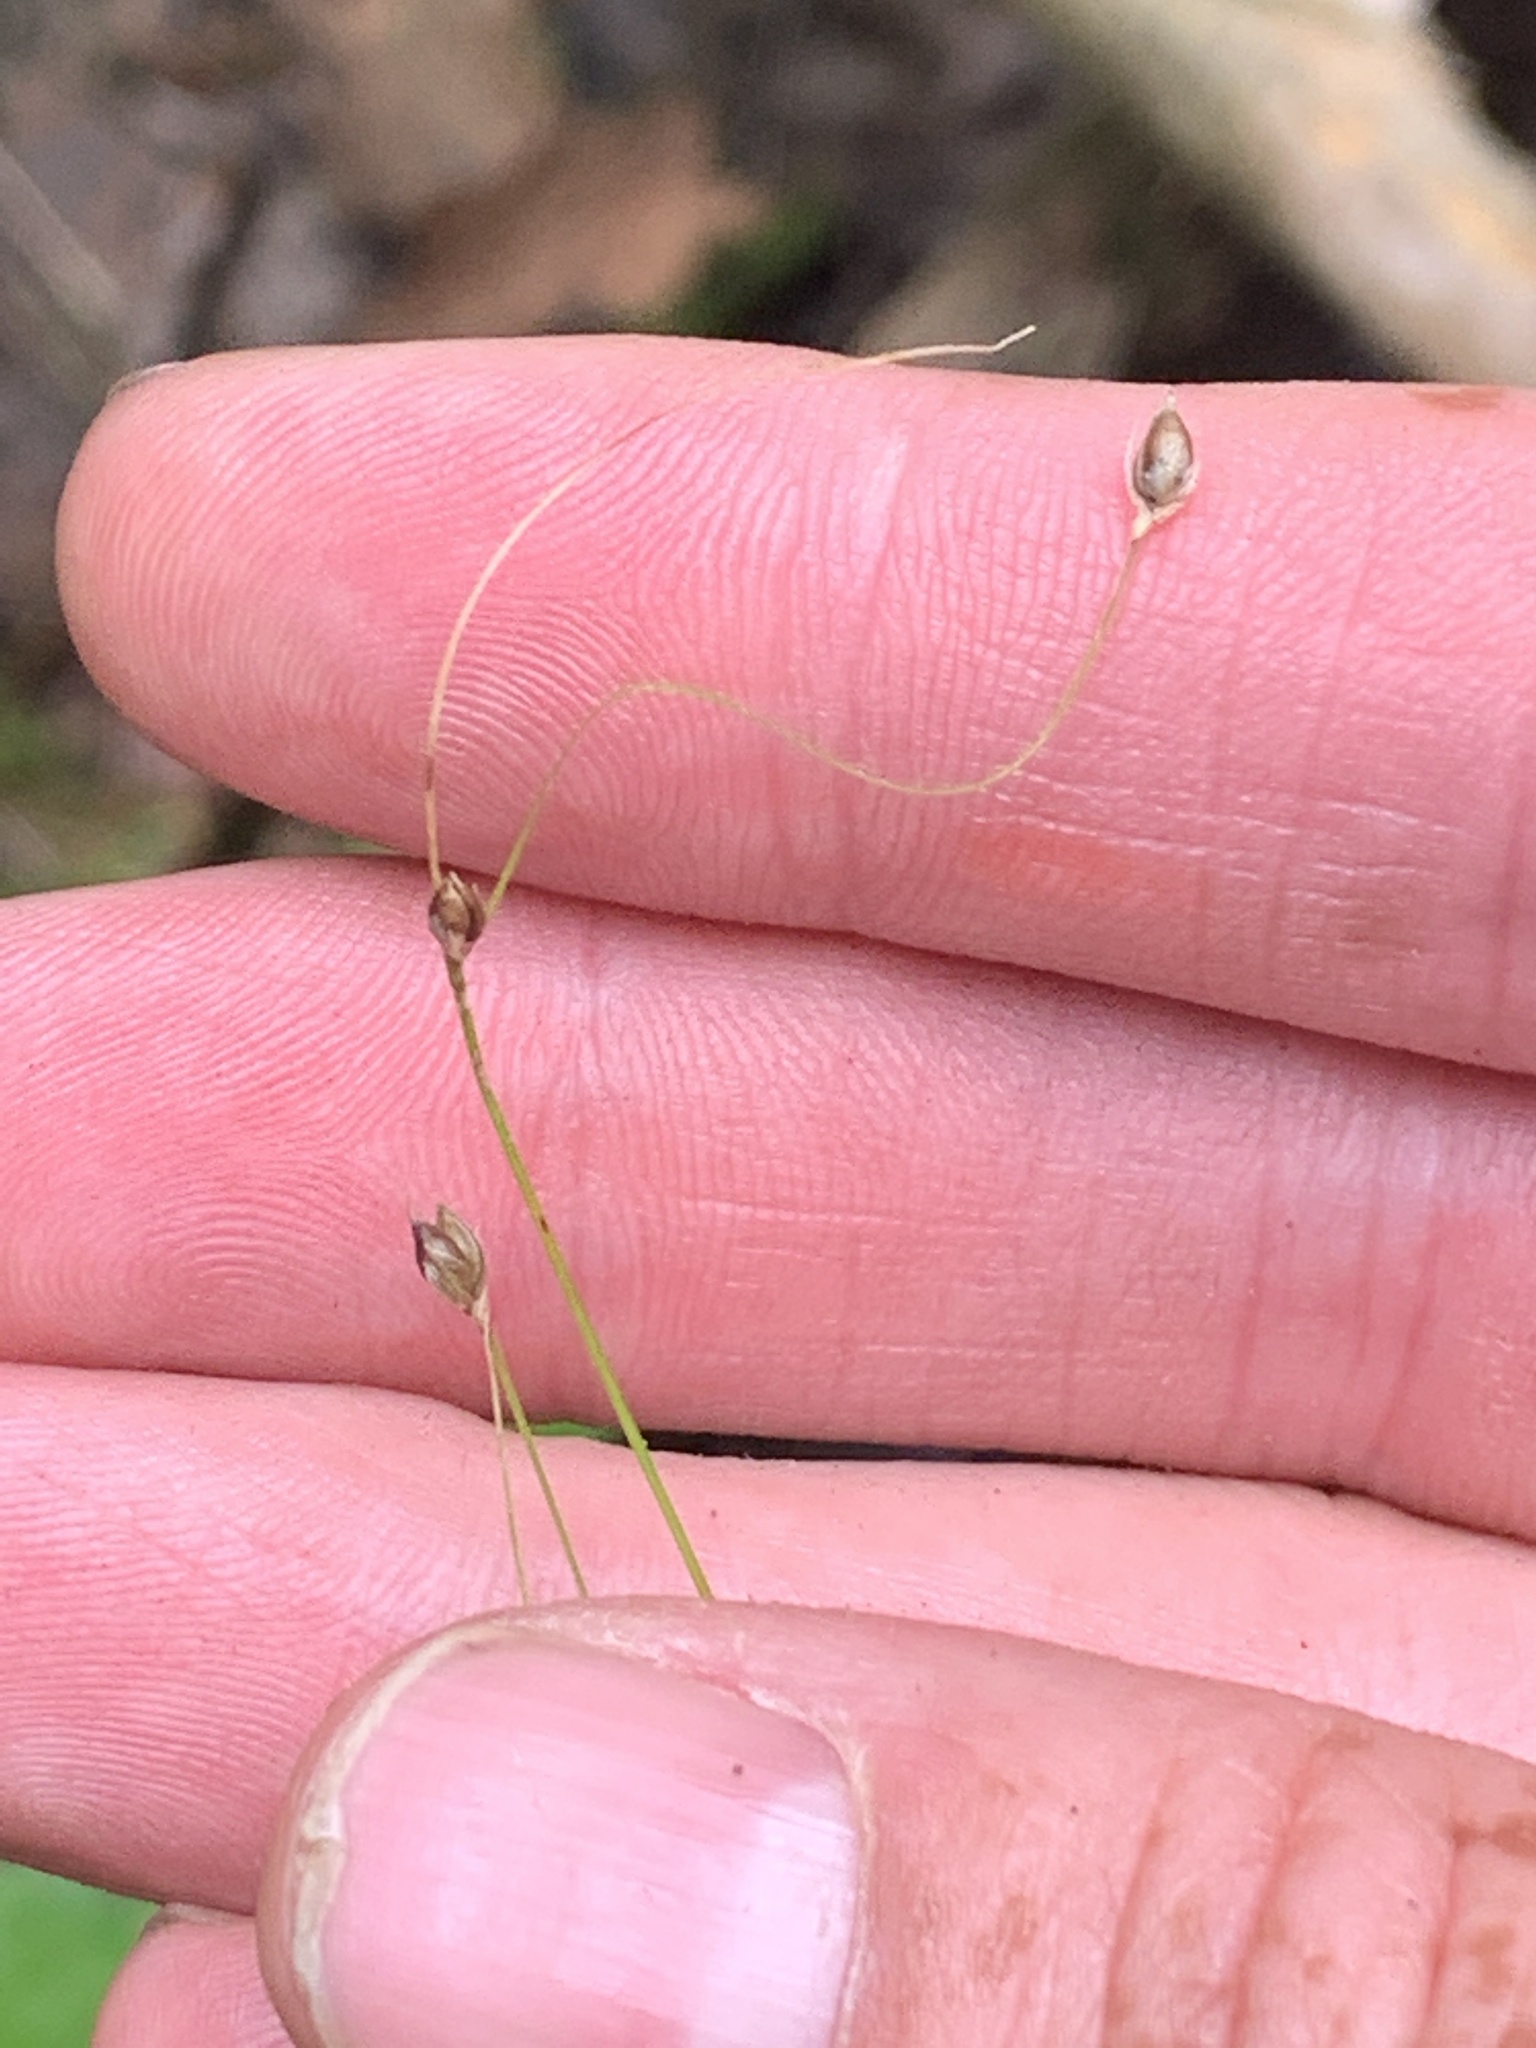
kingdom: Plantae
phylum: Tracheophyta
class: Liliopsida
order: Poales
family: Cyperaceae
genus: Carex
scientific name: Carex trisperma
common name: Three-seeded sedge
